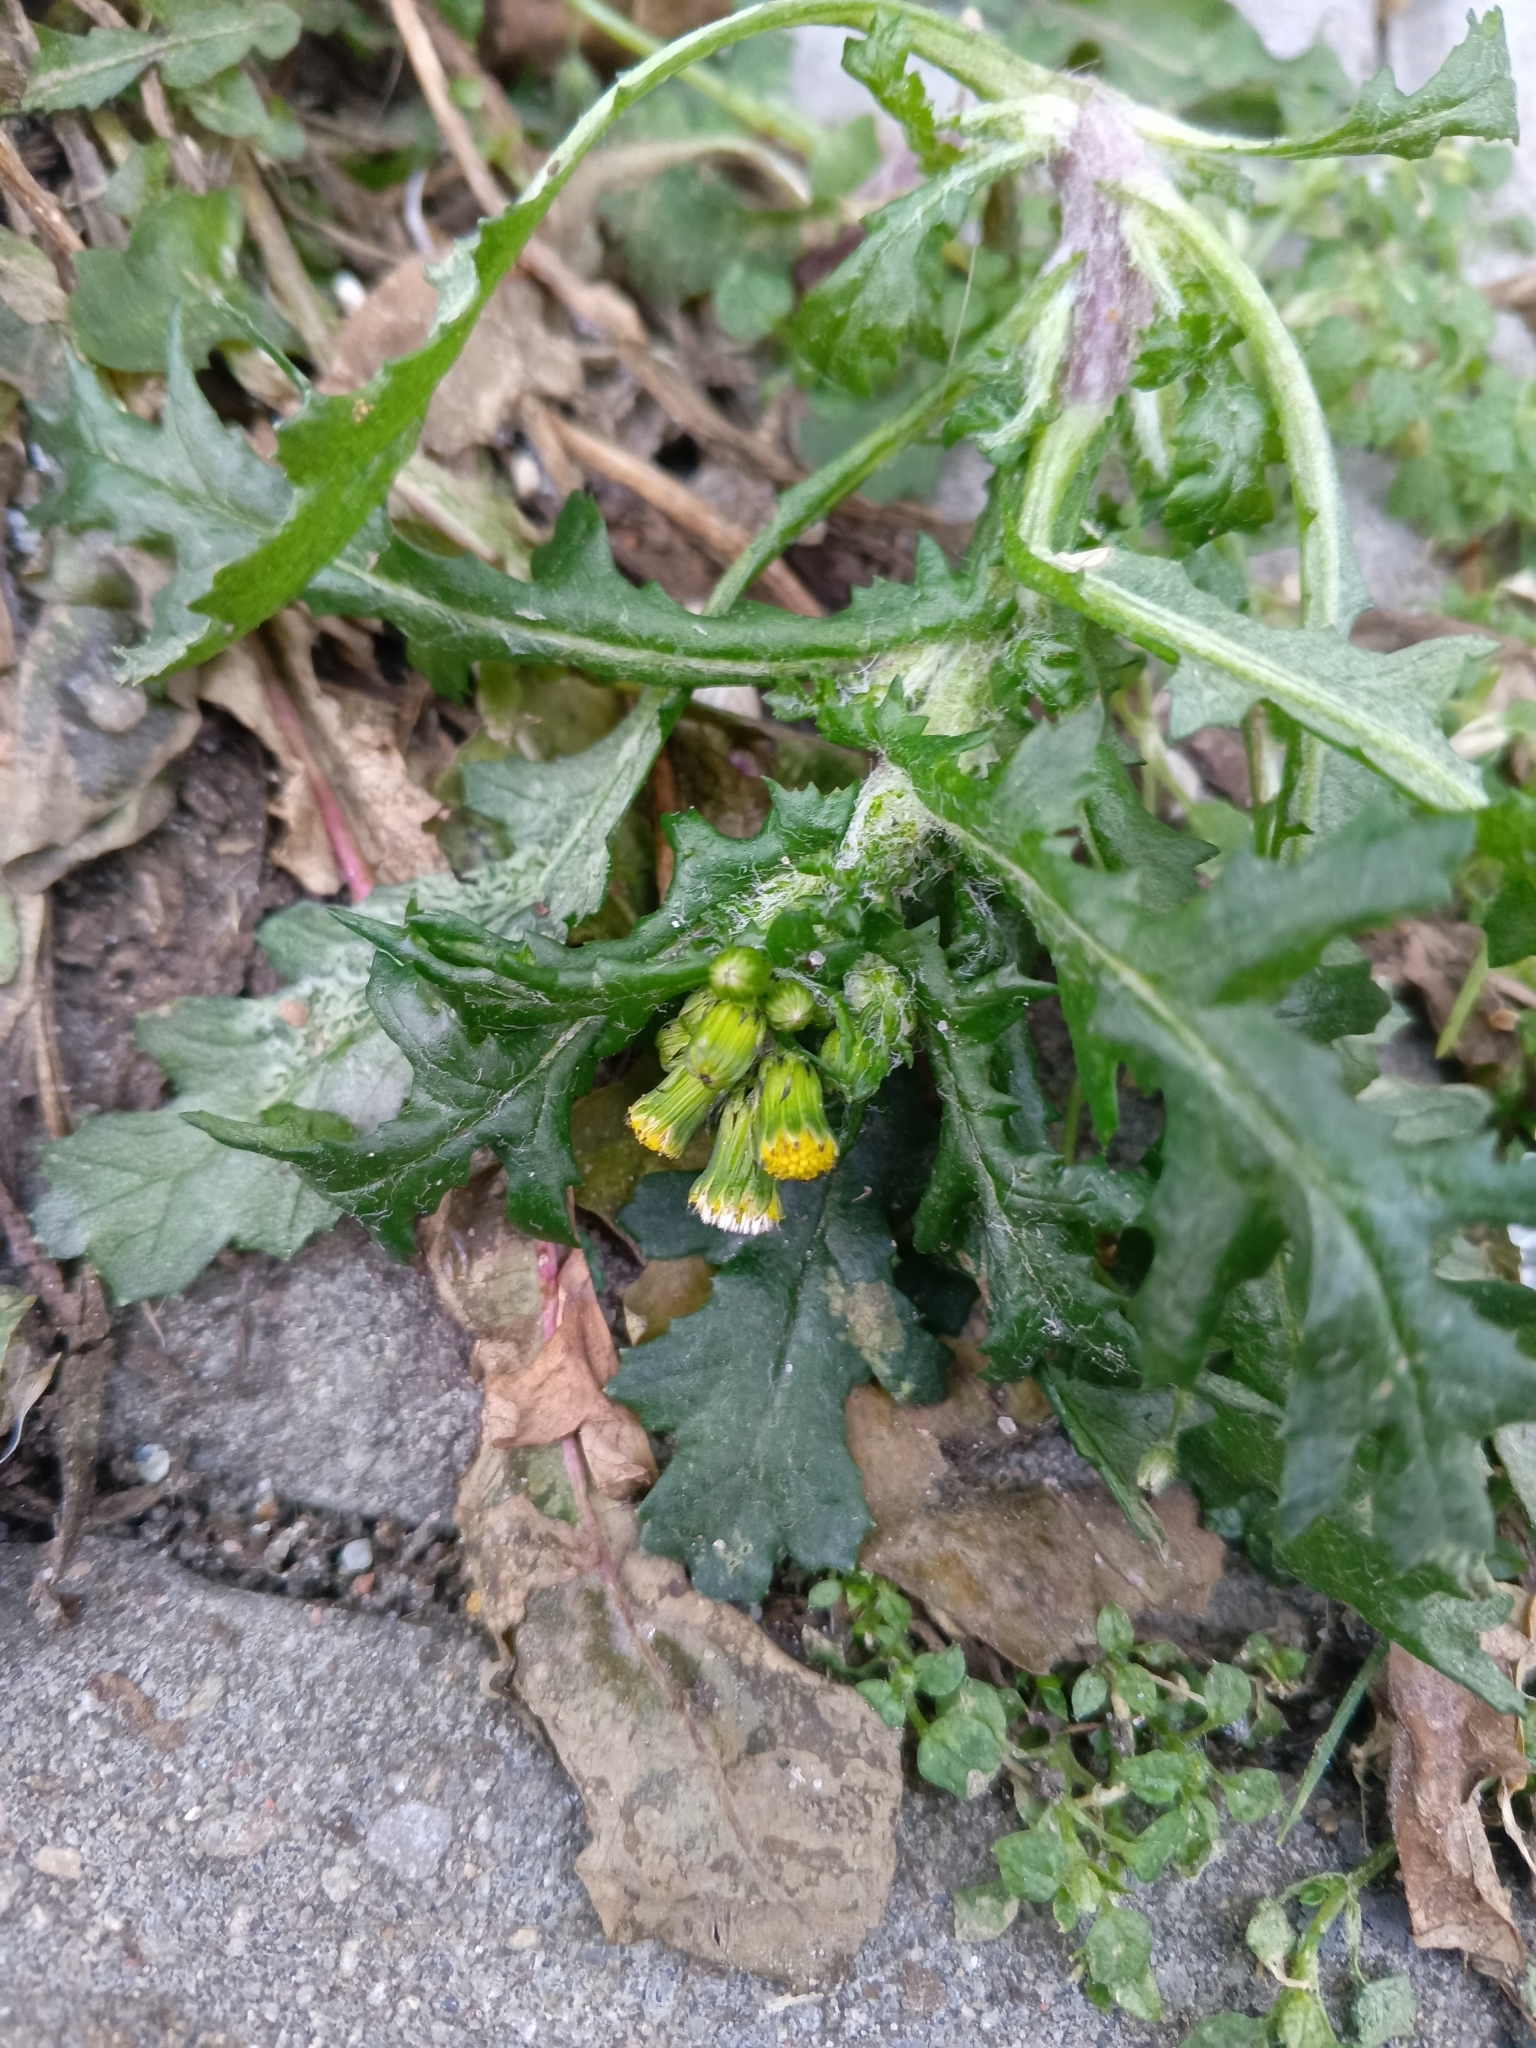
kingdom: Plantae
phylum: Tracheophyta
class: Magnoliopsida
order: Asterales
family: Asteraceae
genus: Senecio
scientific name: Senecio vulgaris
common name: Old-man-in-the-spring
